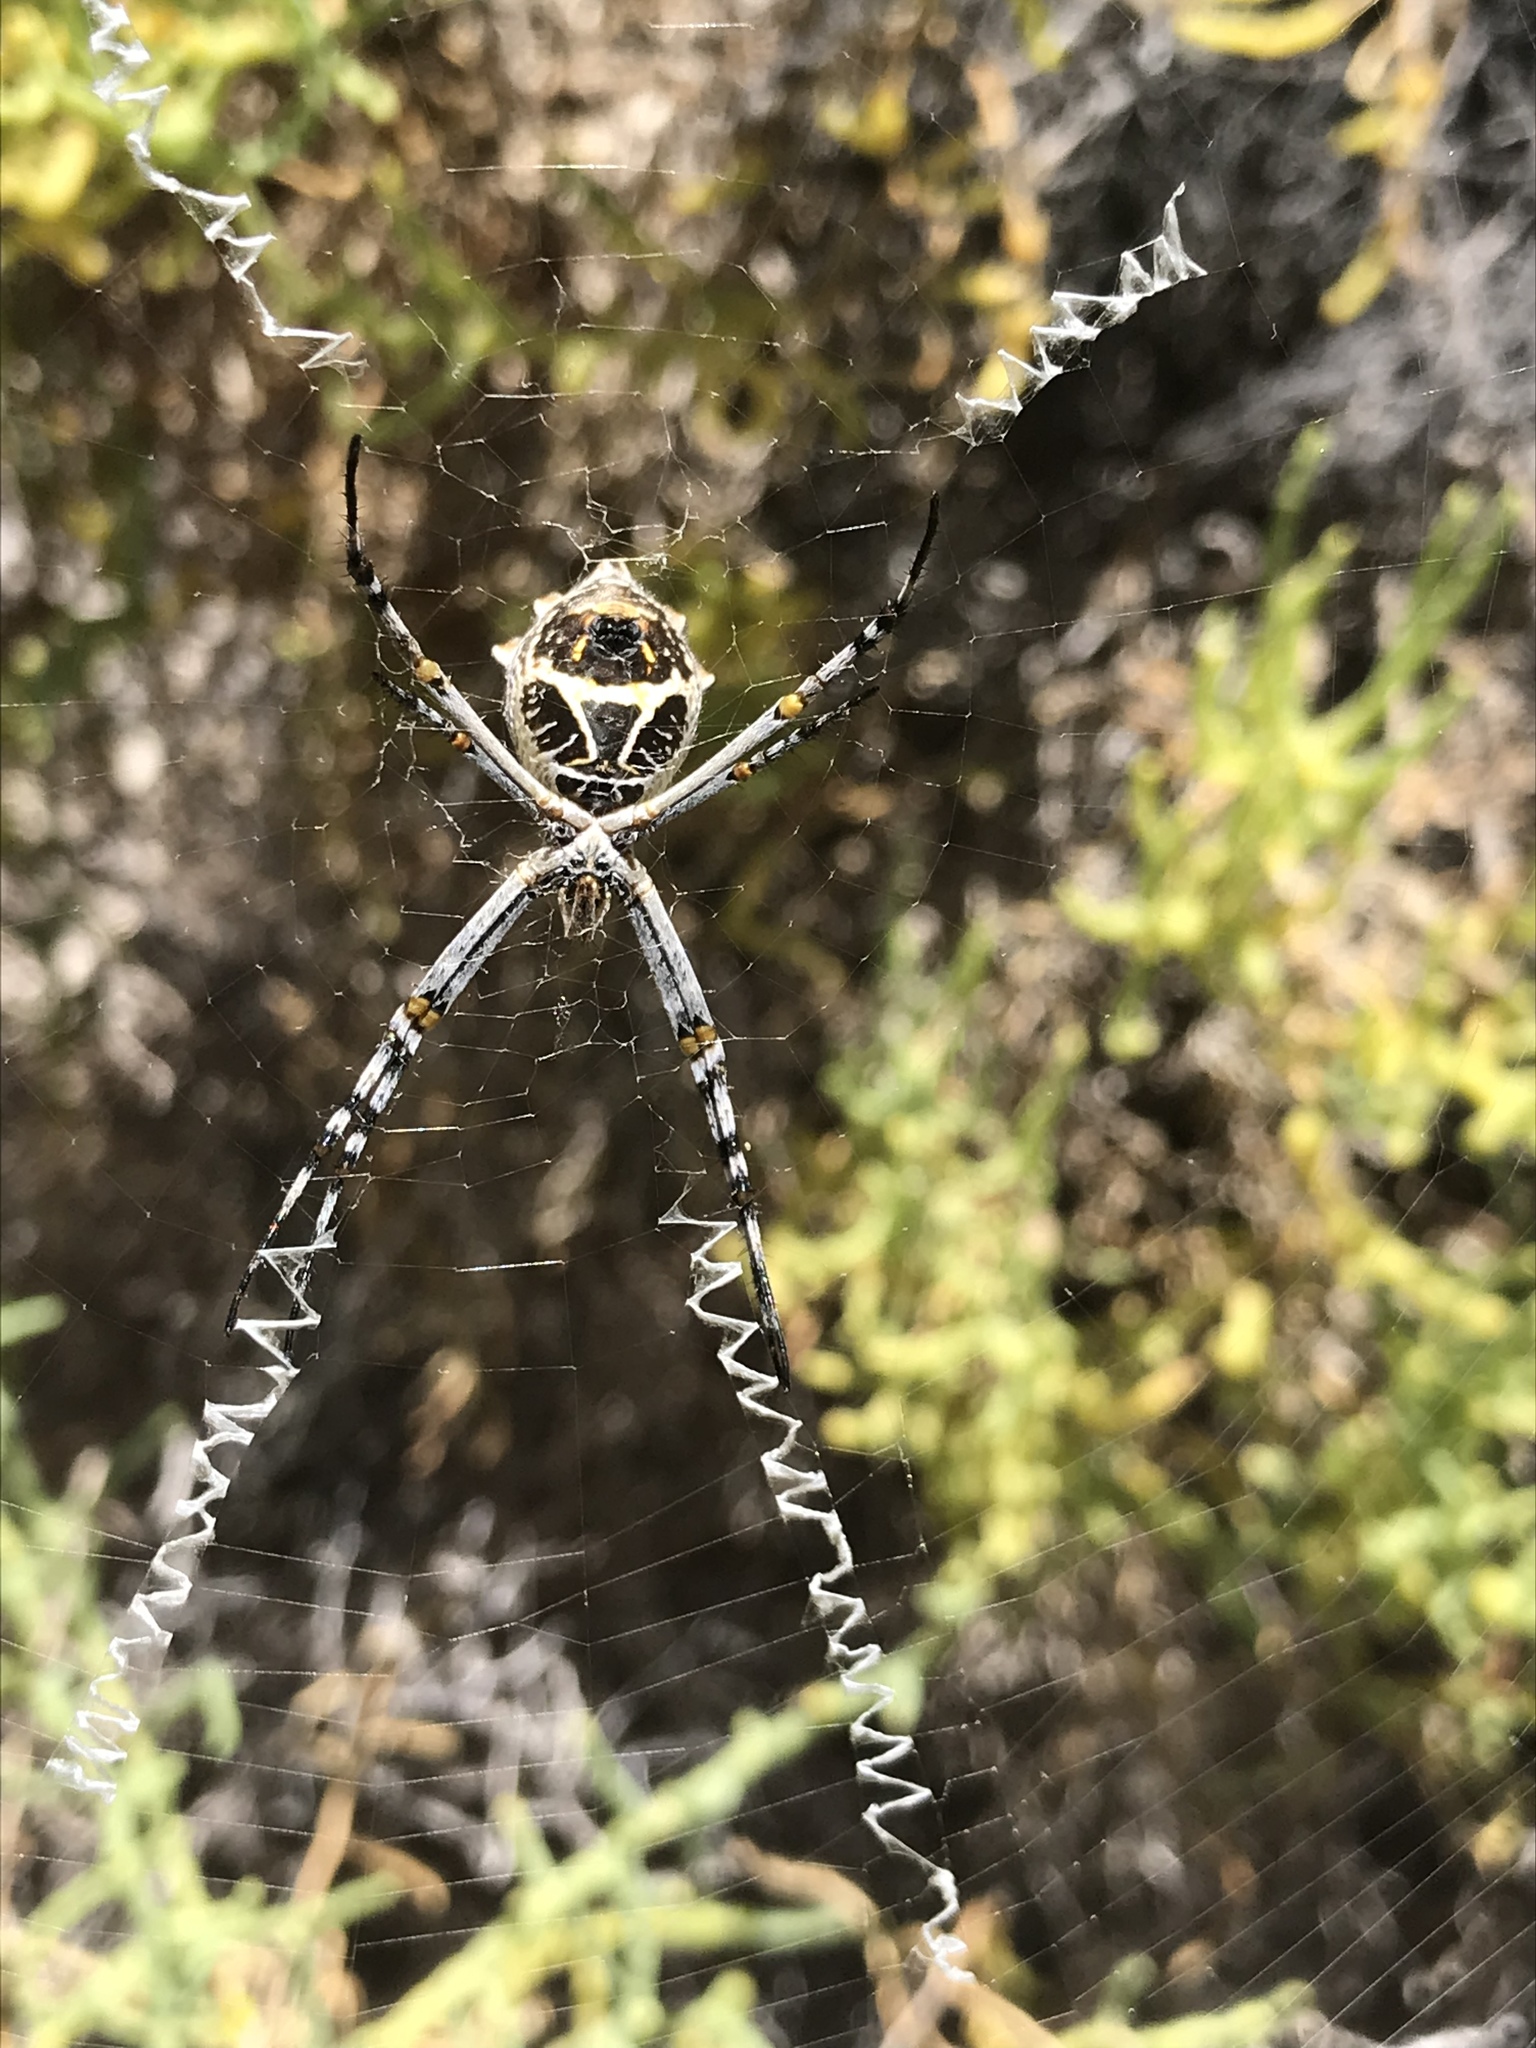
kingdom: Animalia
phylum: Arthropoda
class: Arachnida
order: Araneae
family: Araneidae
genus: Argiope
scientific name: Argiope argentata
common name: Orb weavers
